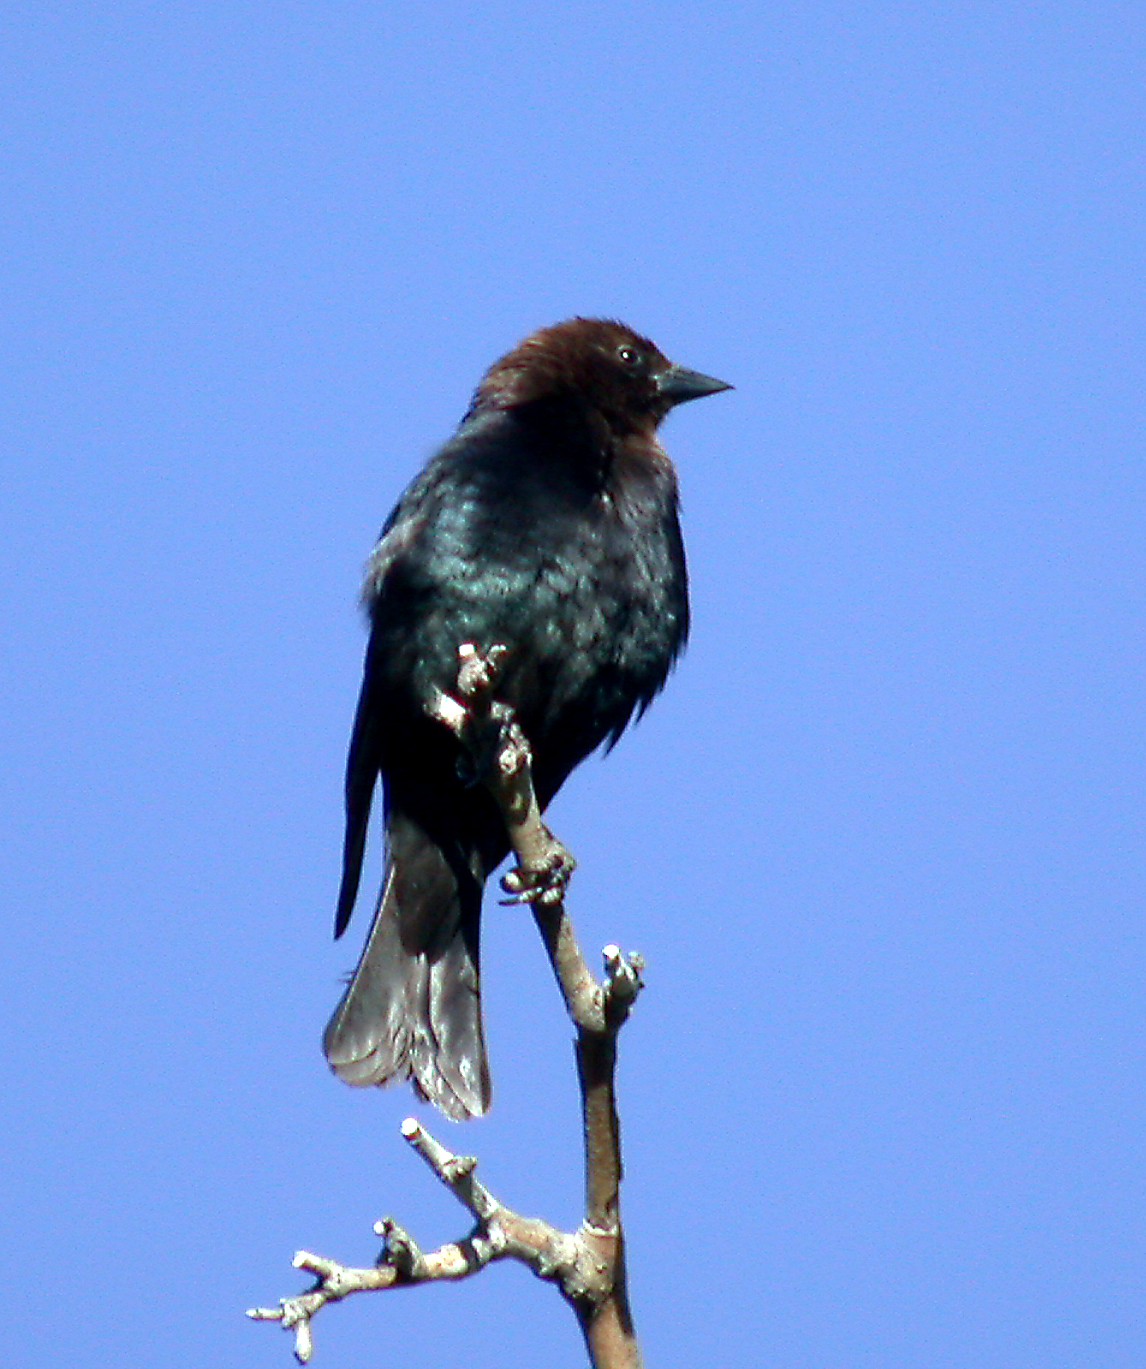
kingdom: Animalia
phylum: Chordata
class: Aves
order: Passeriformes
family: Icteridae
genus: Molothrus
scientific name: Molothrus ater
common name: Brown-headed cowbird
